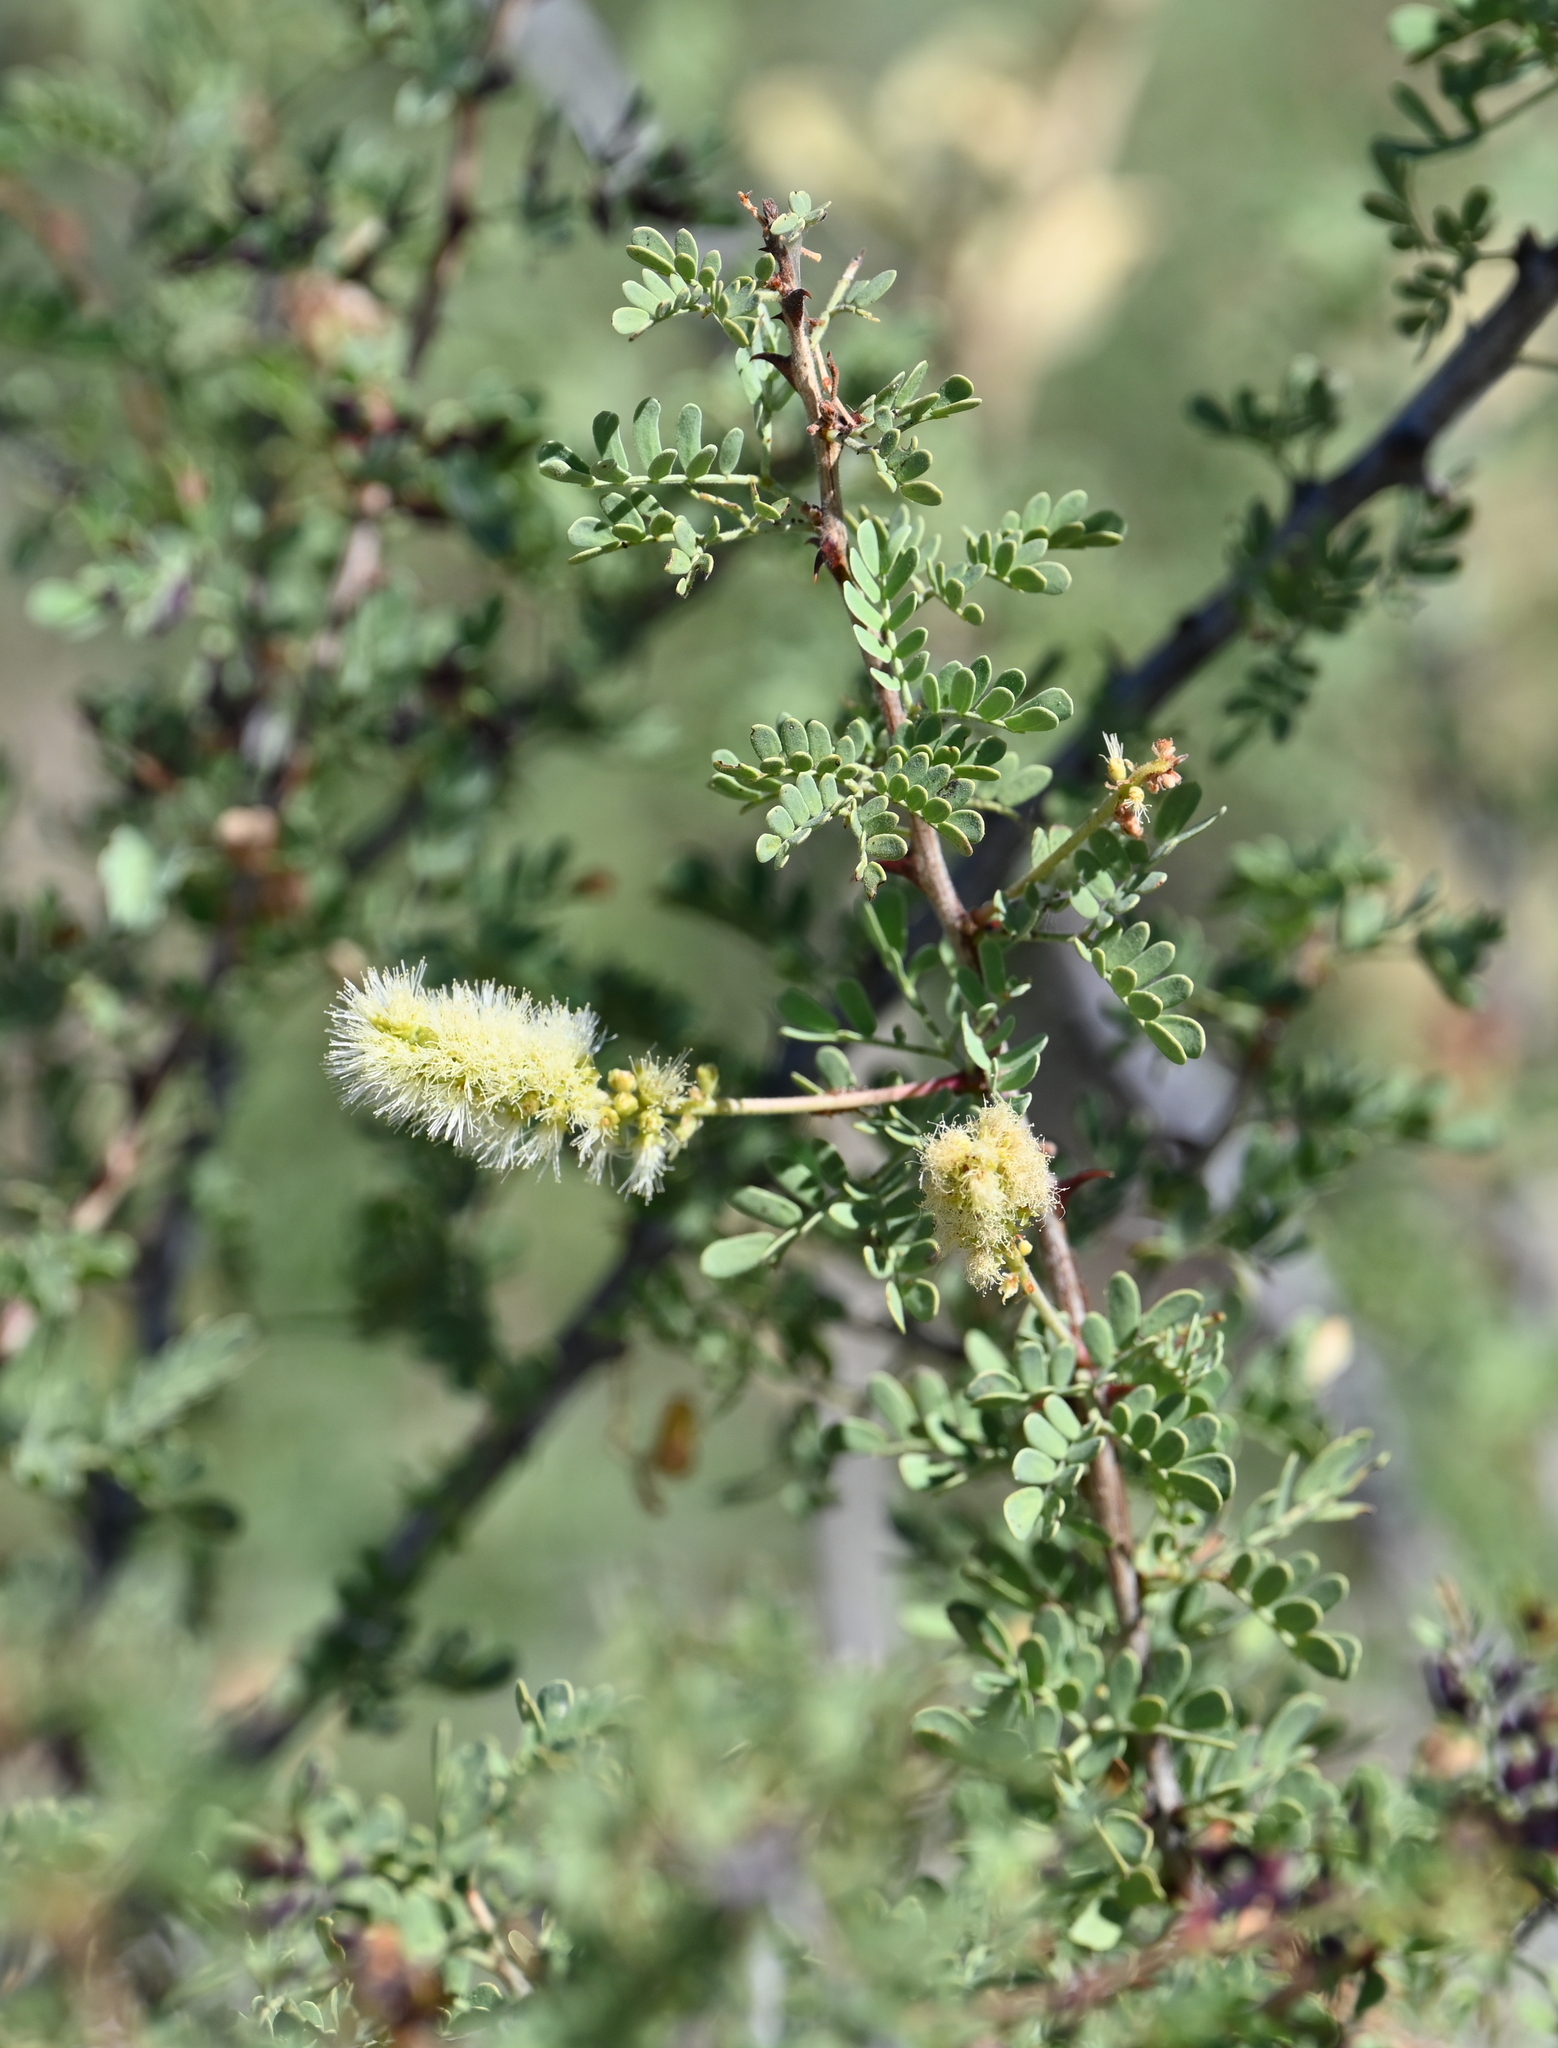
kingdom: Plantae
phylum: Tracheophyta
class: Magnoliopsida
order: Fabales
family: Fabaceae
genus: Senegalia
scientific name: Senegalia greggii
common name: Texas-mimosa
